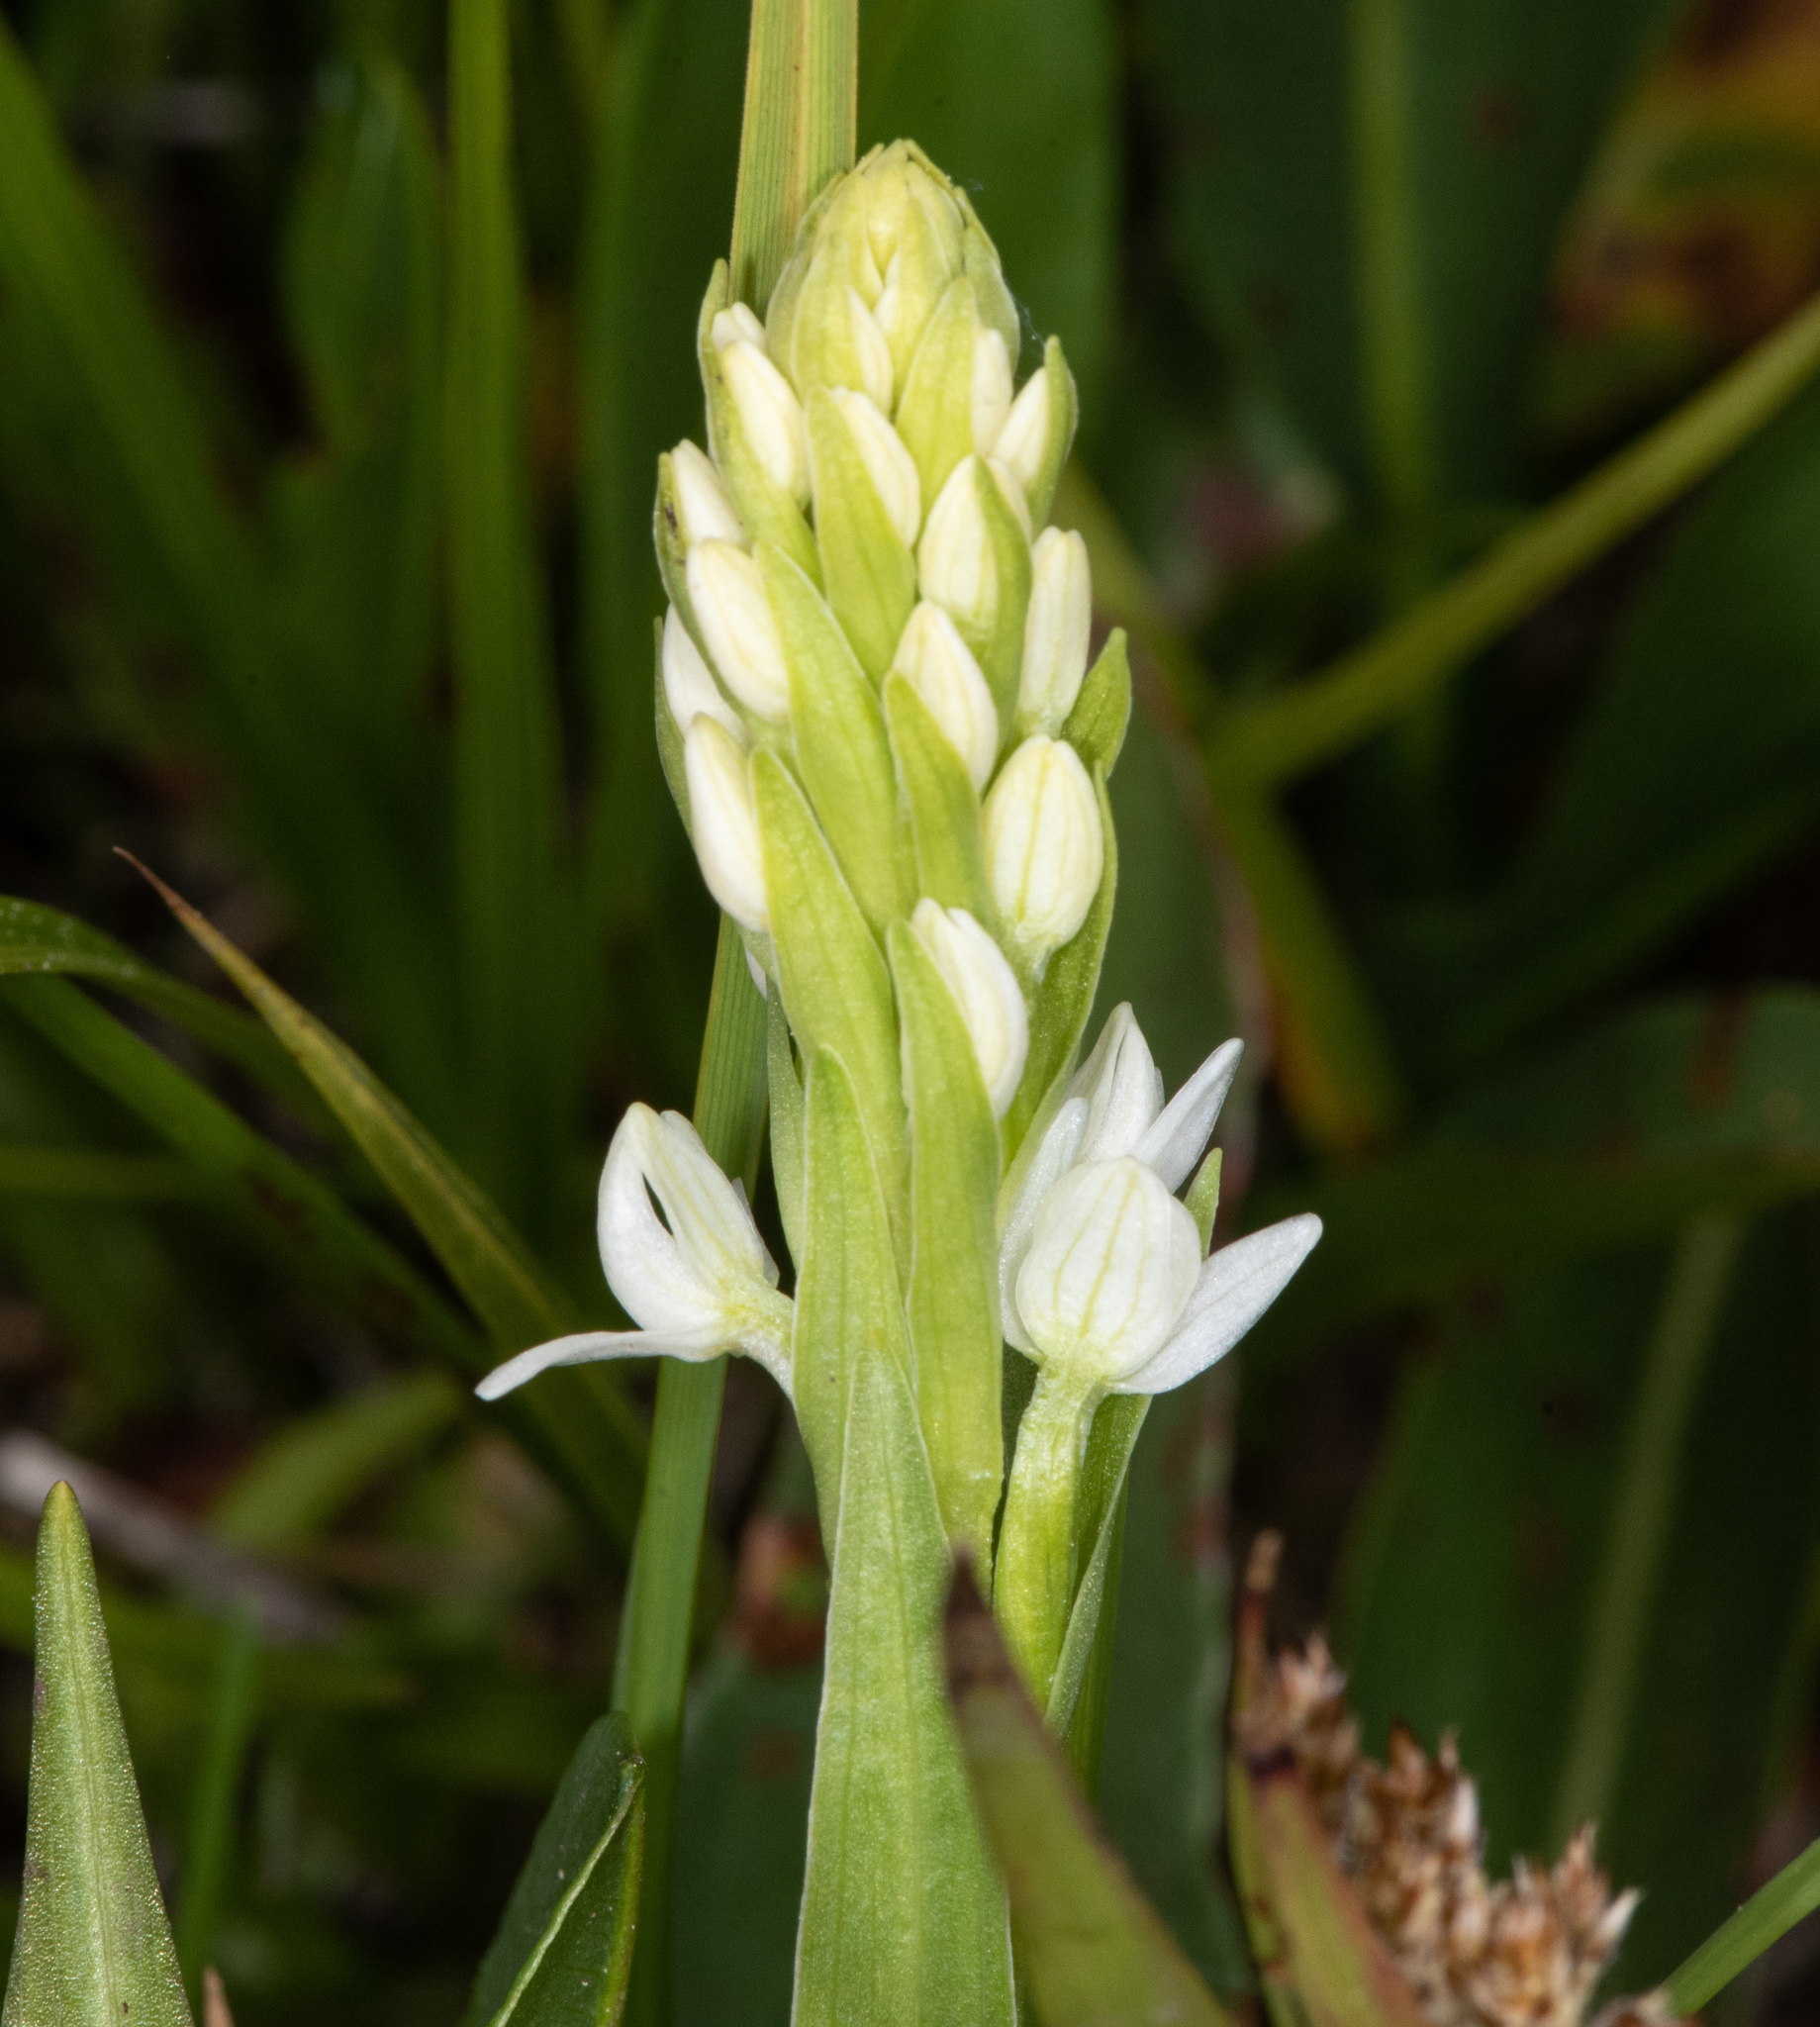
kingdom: Plantae
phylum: Tracheophyta
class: Liliopsida
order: Asparagales
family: Orchidaceae
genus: Platanthera
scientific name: Platanthera dilatata
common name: Bog candles
